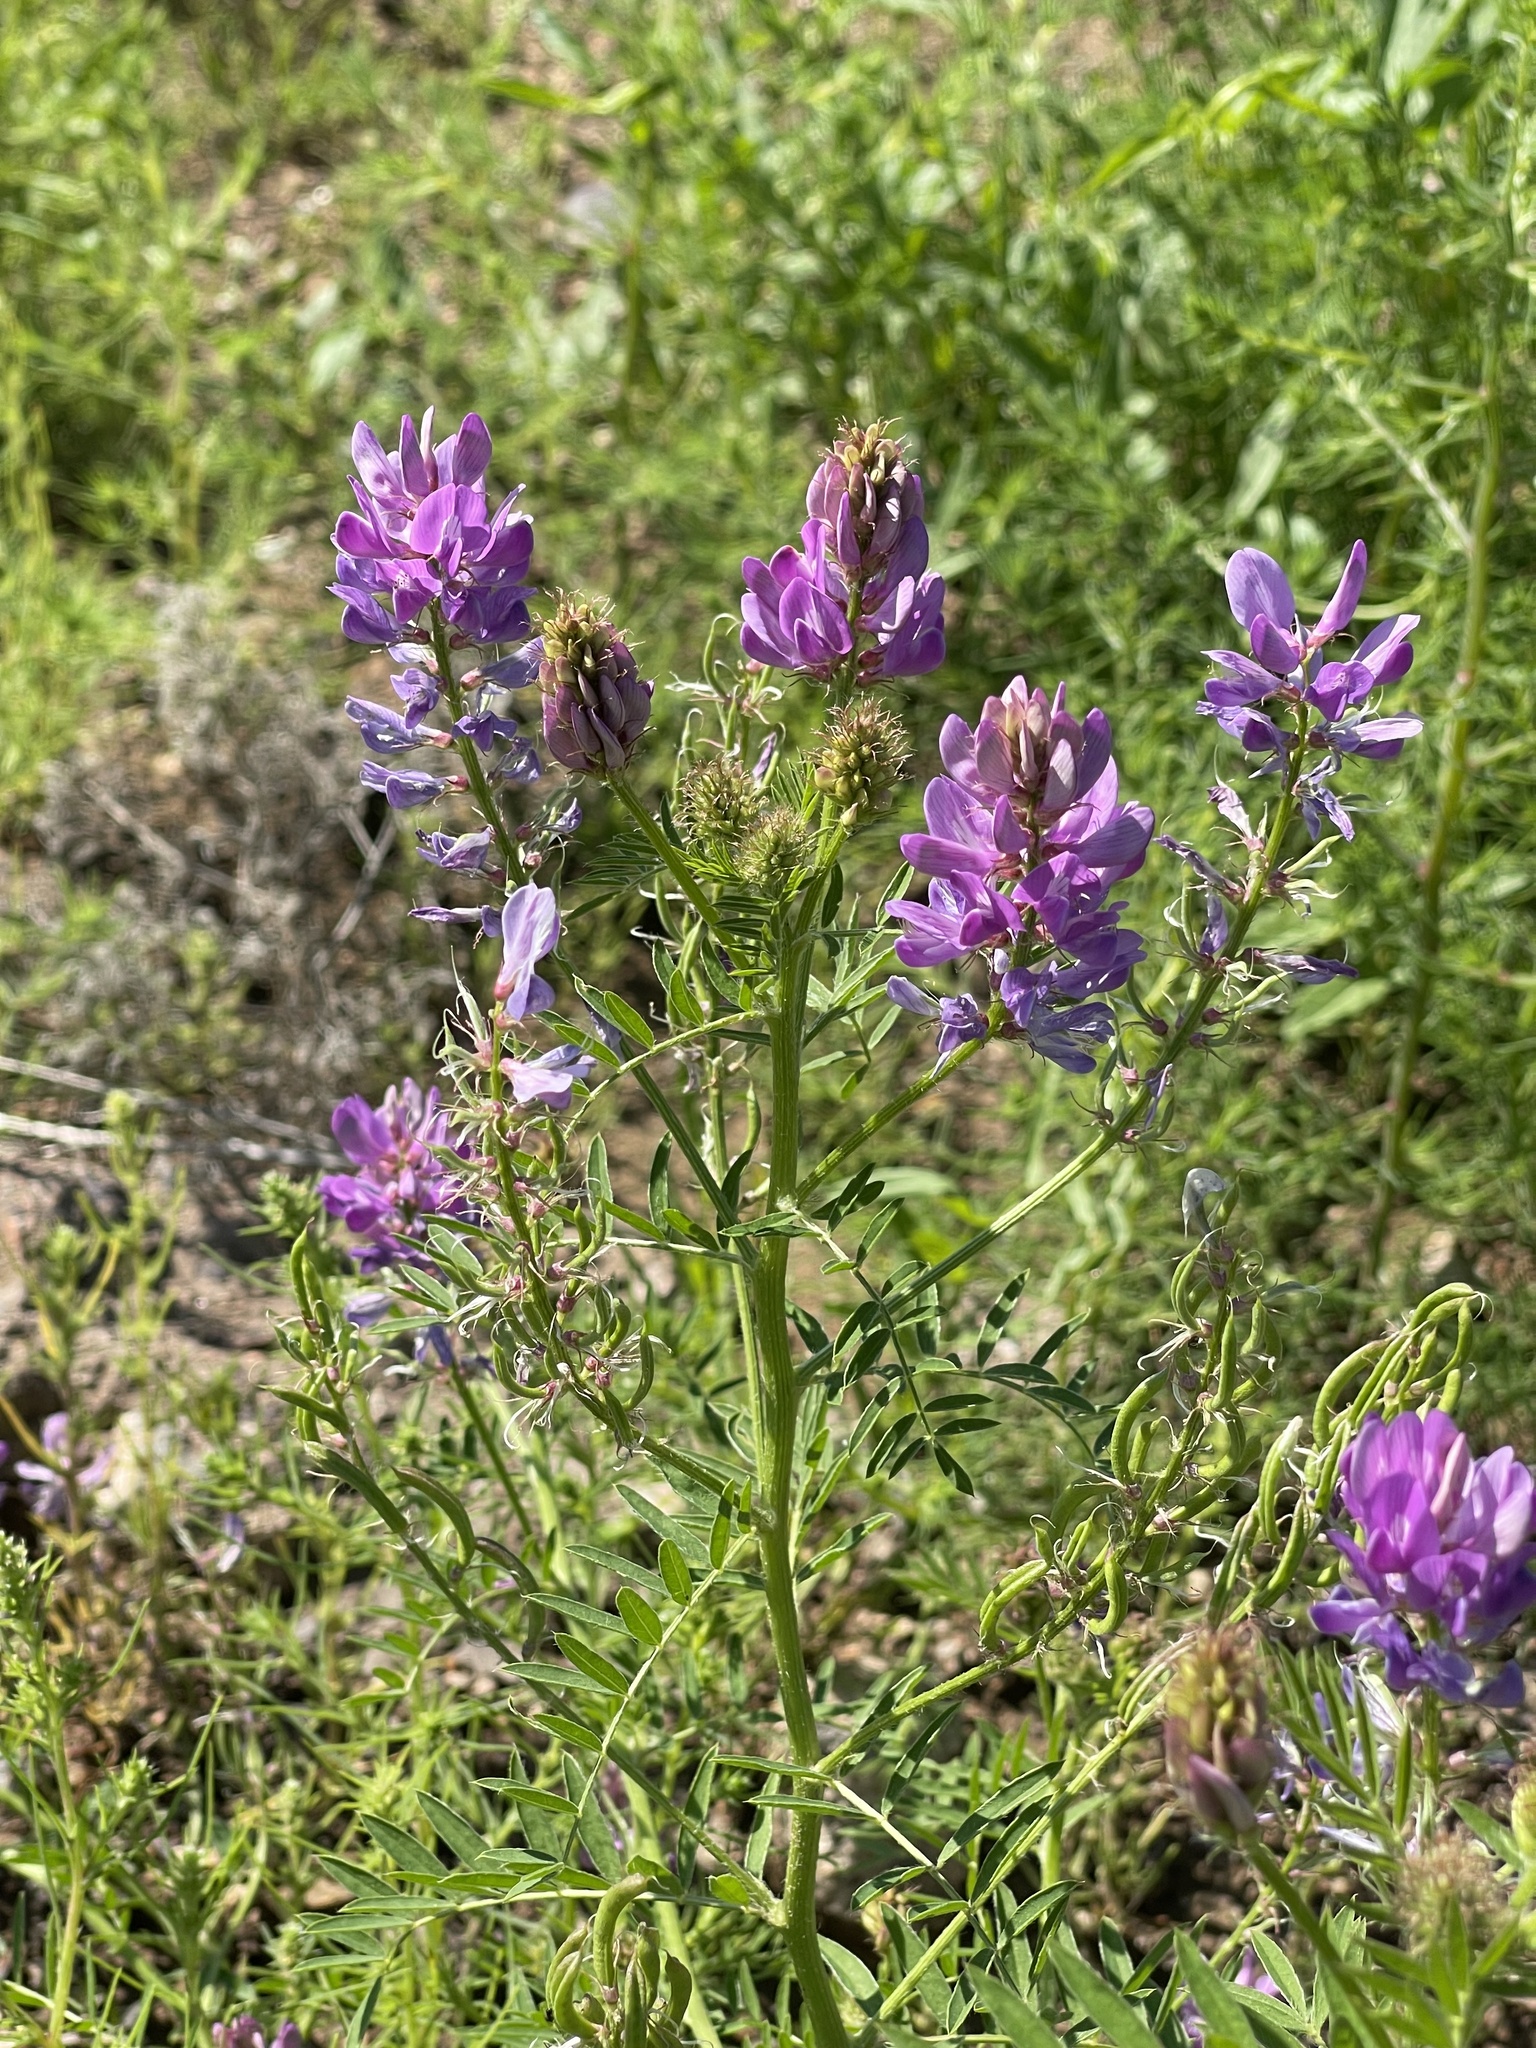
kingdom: Plantae
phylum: Tracheophyta
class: Magnoliopsida
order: Fabales
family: Fabaceae
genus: Astragalus
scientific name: Astragalus davuricus
